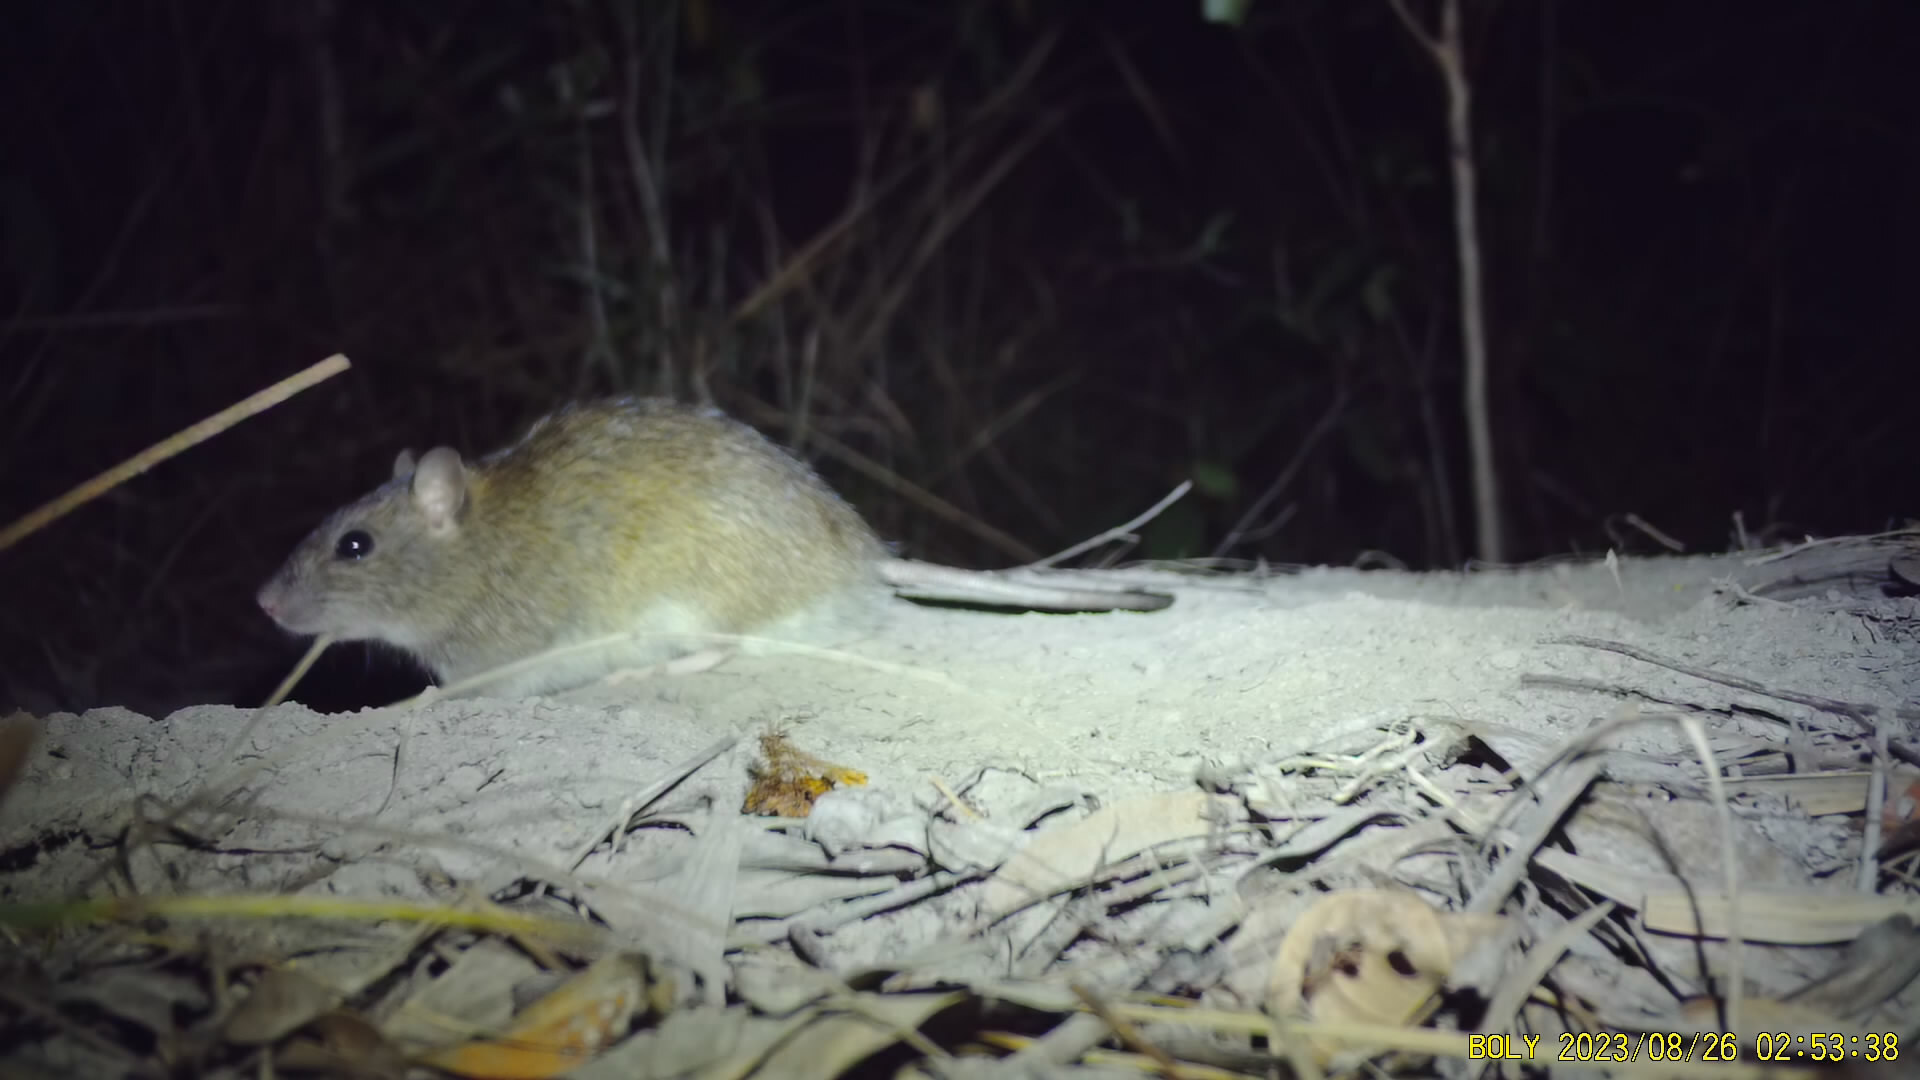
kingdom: Animalia
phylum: Chordata
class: Mammalia
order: Rodentia
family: Muridae
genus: Rattus
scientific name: Rattus tunneyi
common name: Australian pale field rat
